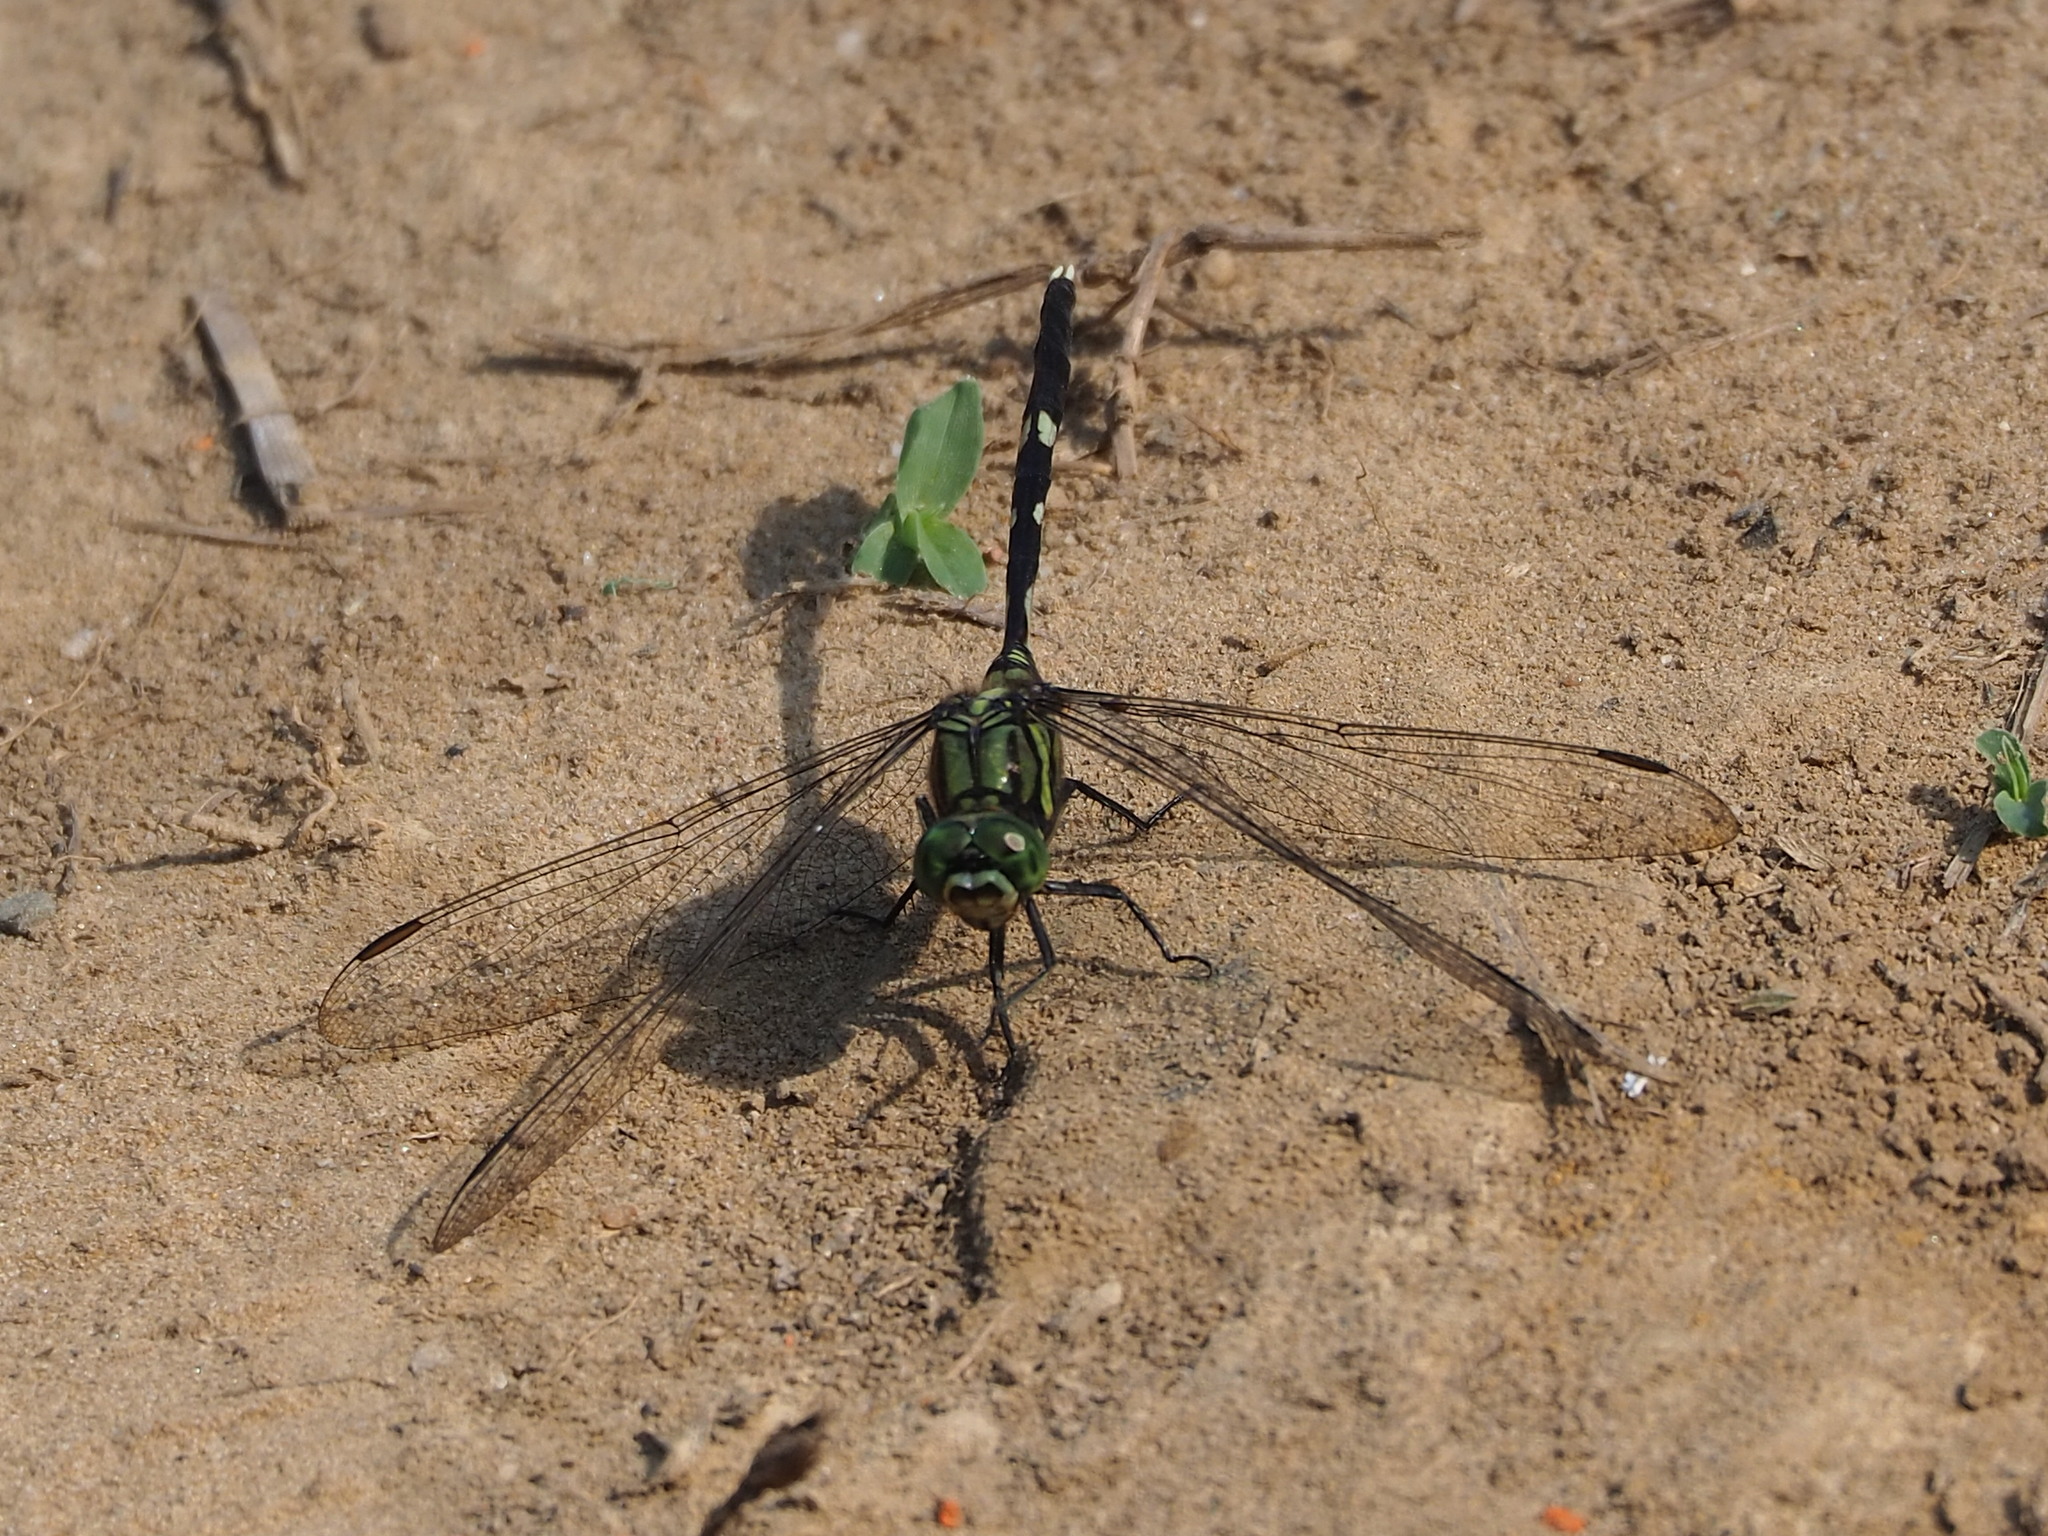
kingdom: Animalia
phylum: Arthropoda
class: Insecta
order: Odonata
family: Libellulidae
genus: Orthetrum
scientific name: Orthetrum sabina
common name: Slender skimmer
